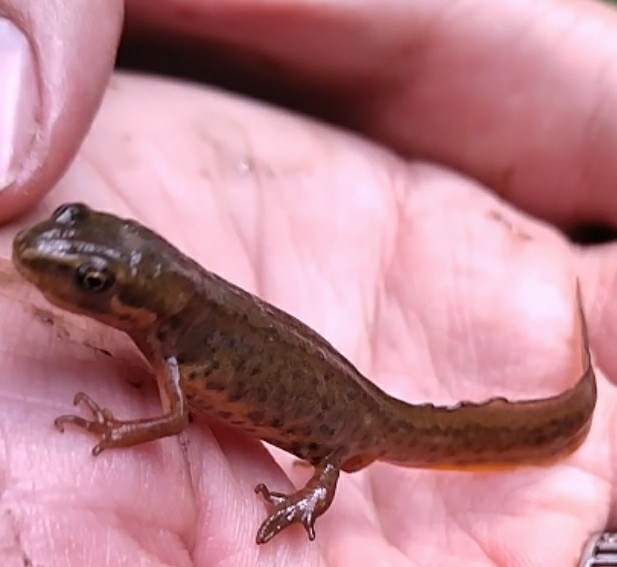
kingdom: Animalia
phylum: Chordata
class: Amphibia
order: Caudata
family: Salamandridae
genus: Lissotriton
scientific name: Lissotriton vulgaris
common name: Smooth newt
